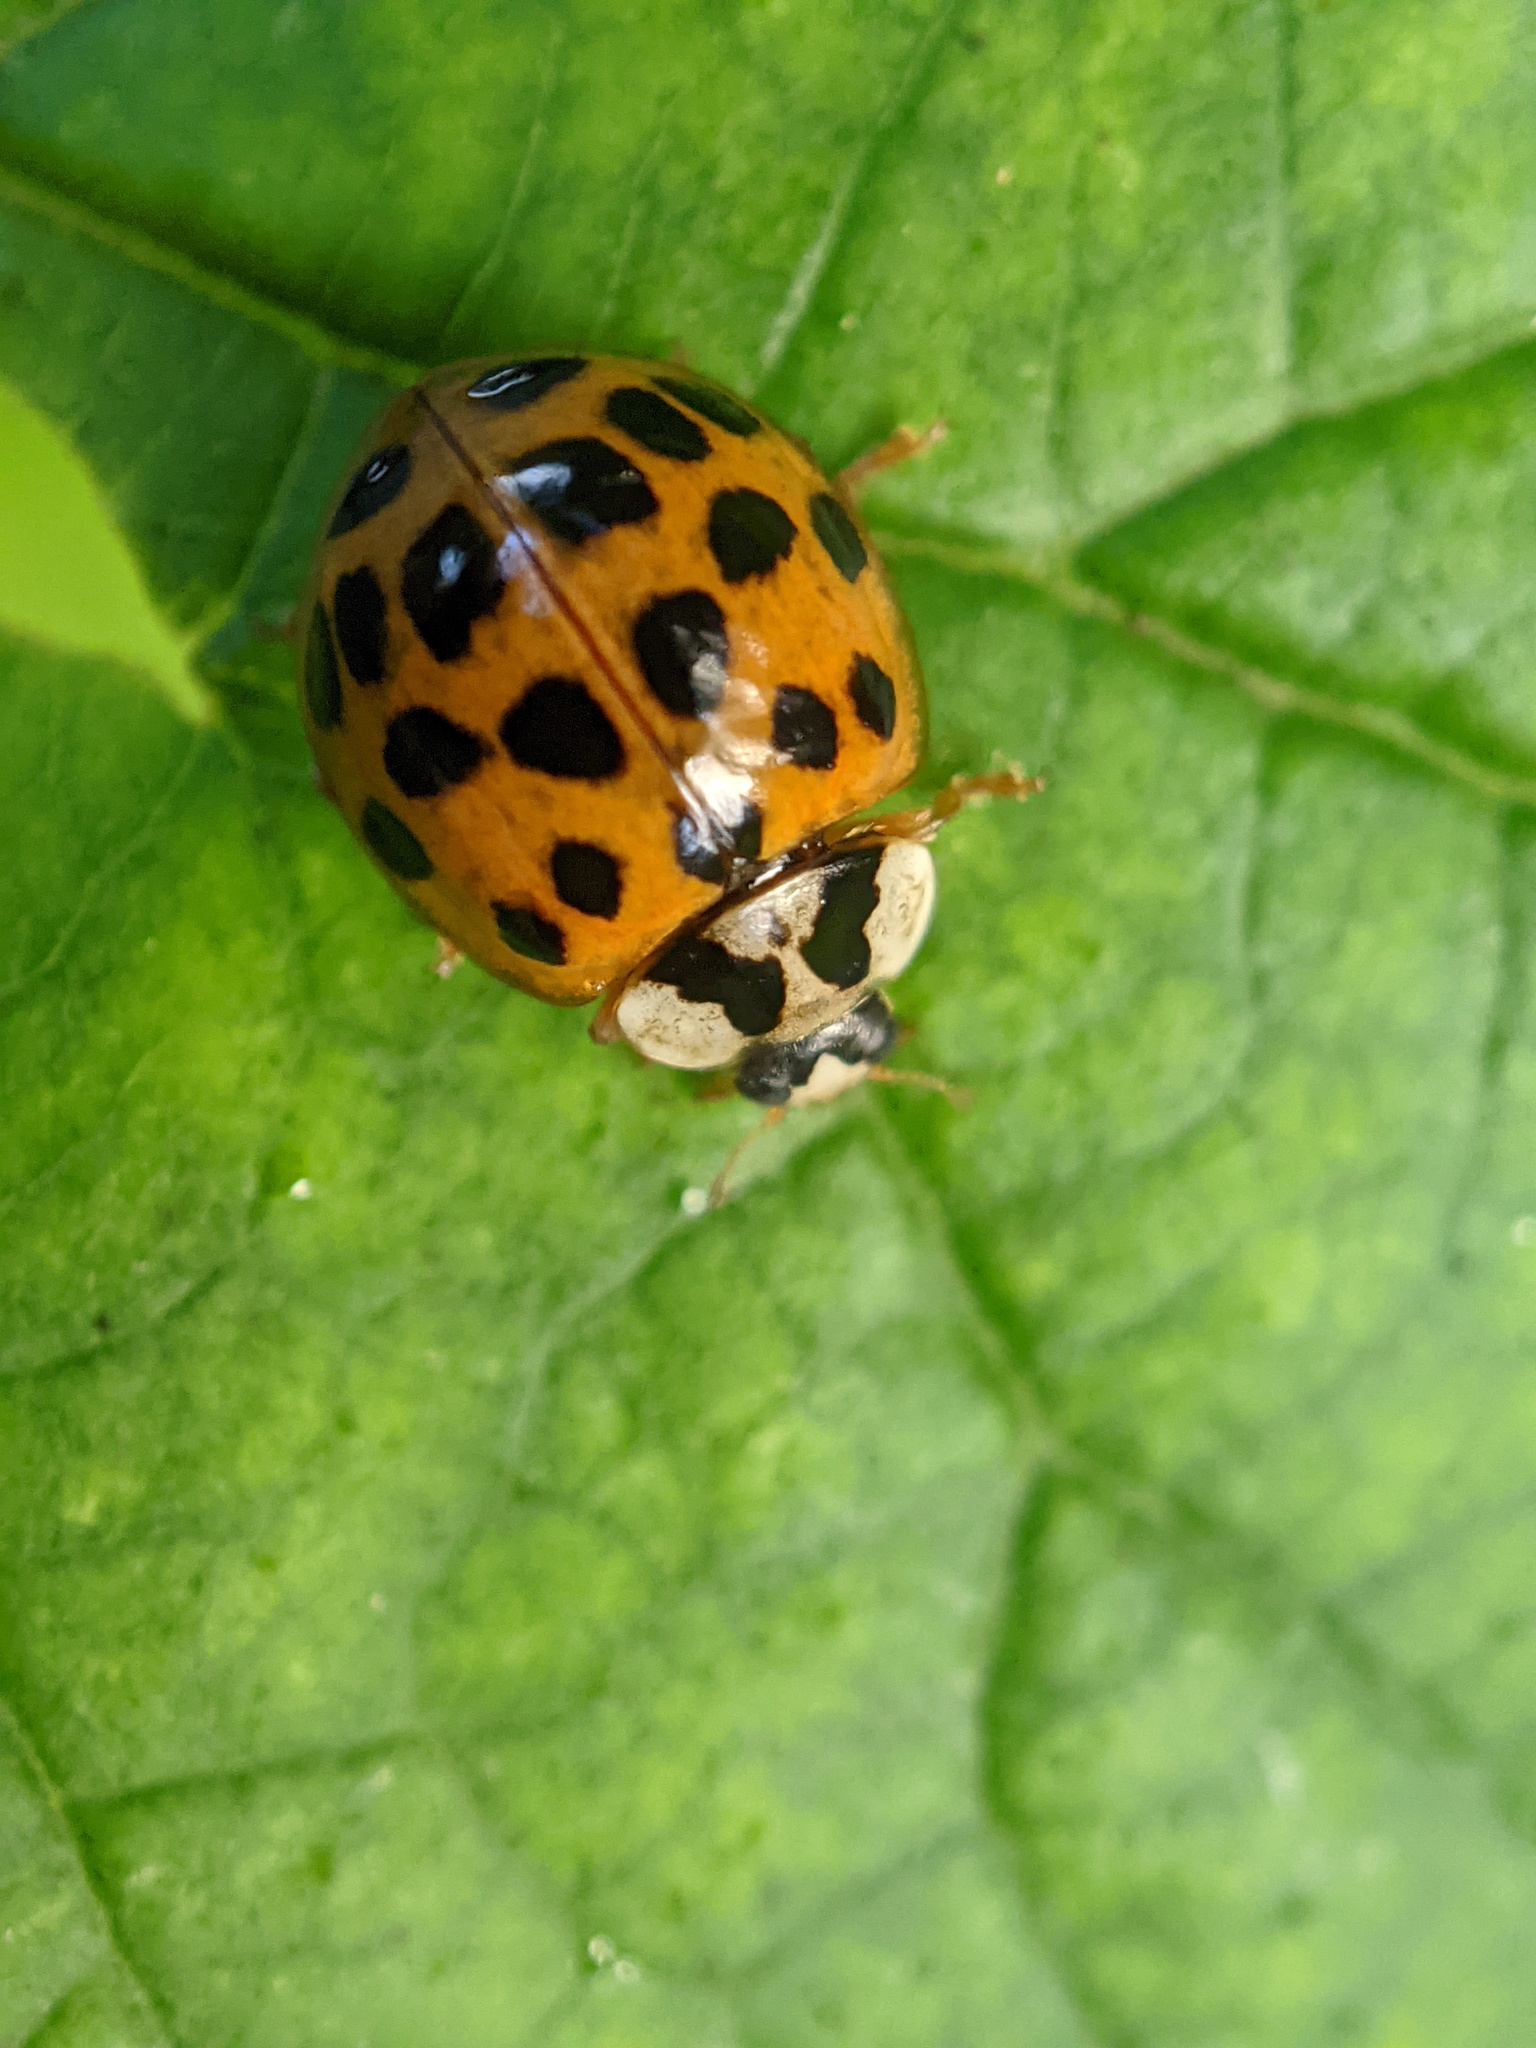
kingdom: Animalia
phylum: Arthropoda
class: Insecta
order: Coleoptera
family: Coccinellidae
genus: Harmonia
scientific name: Harmonia axyridis
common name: Harlequin ladybird
